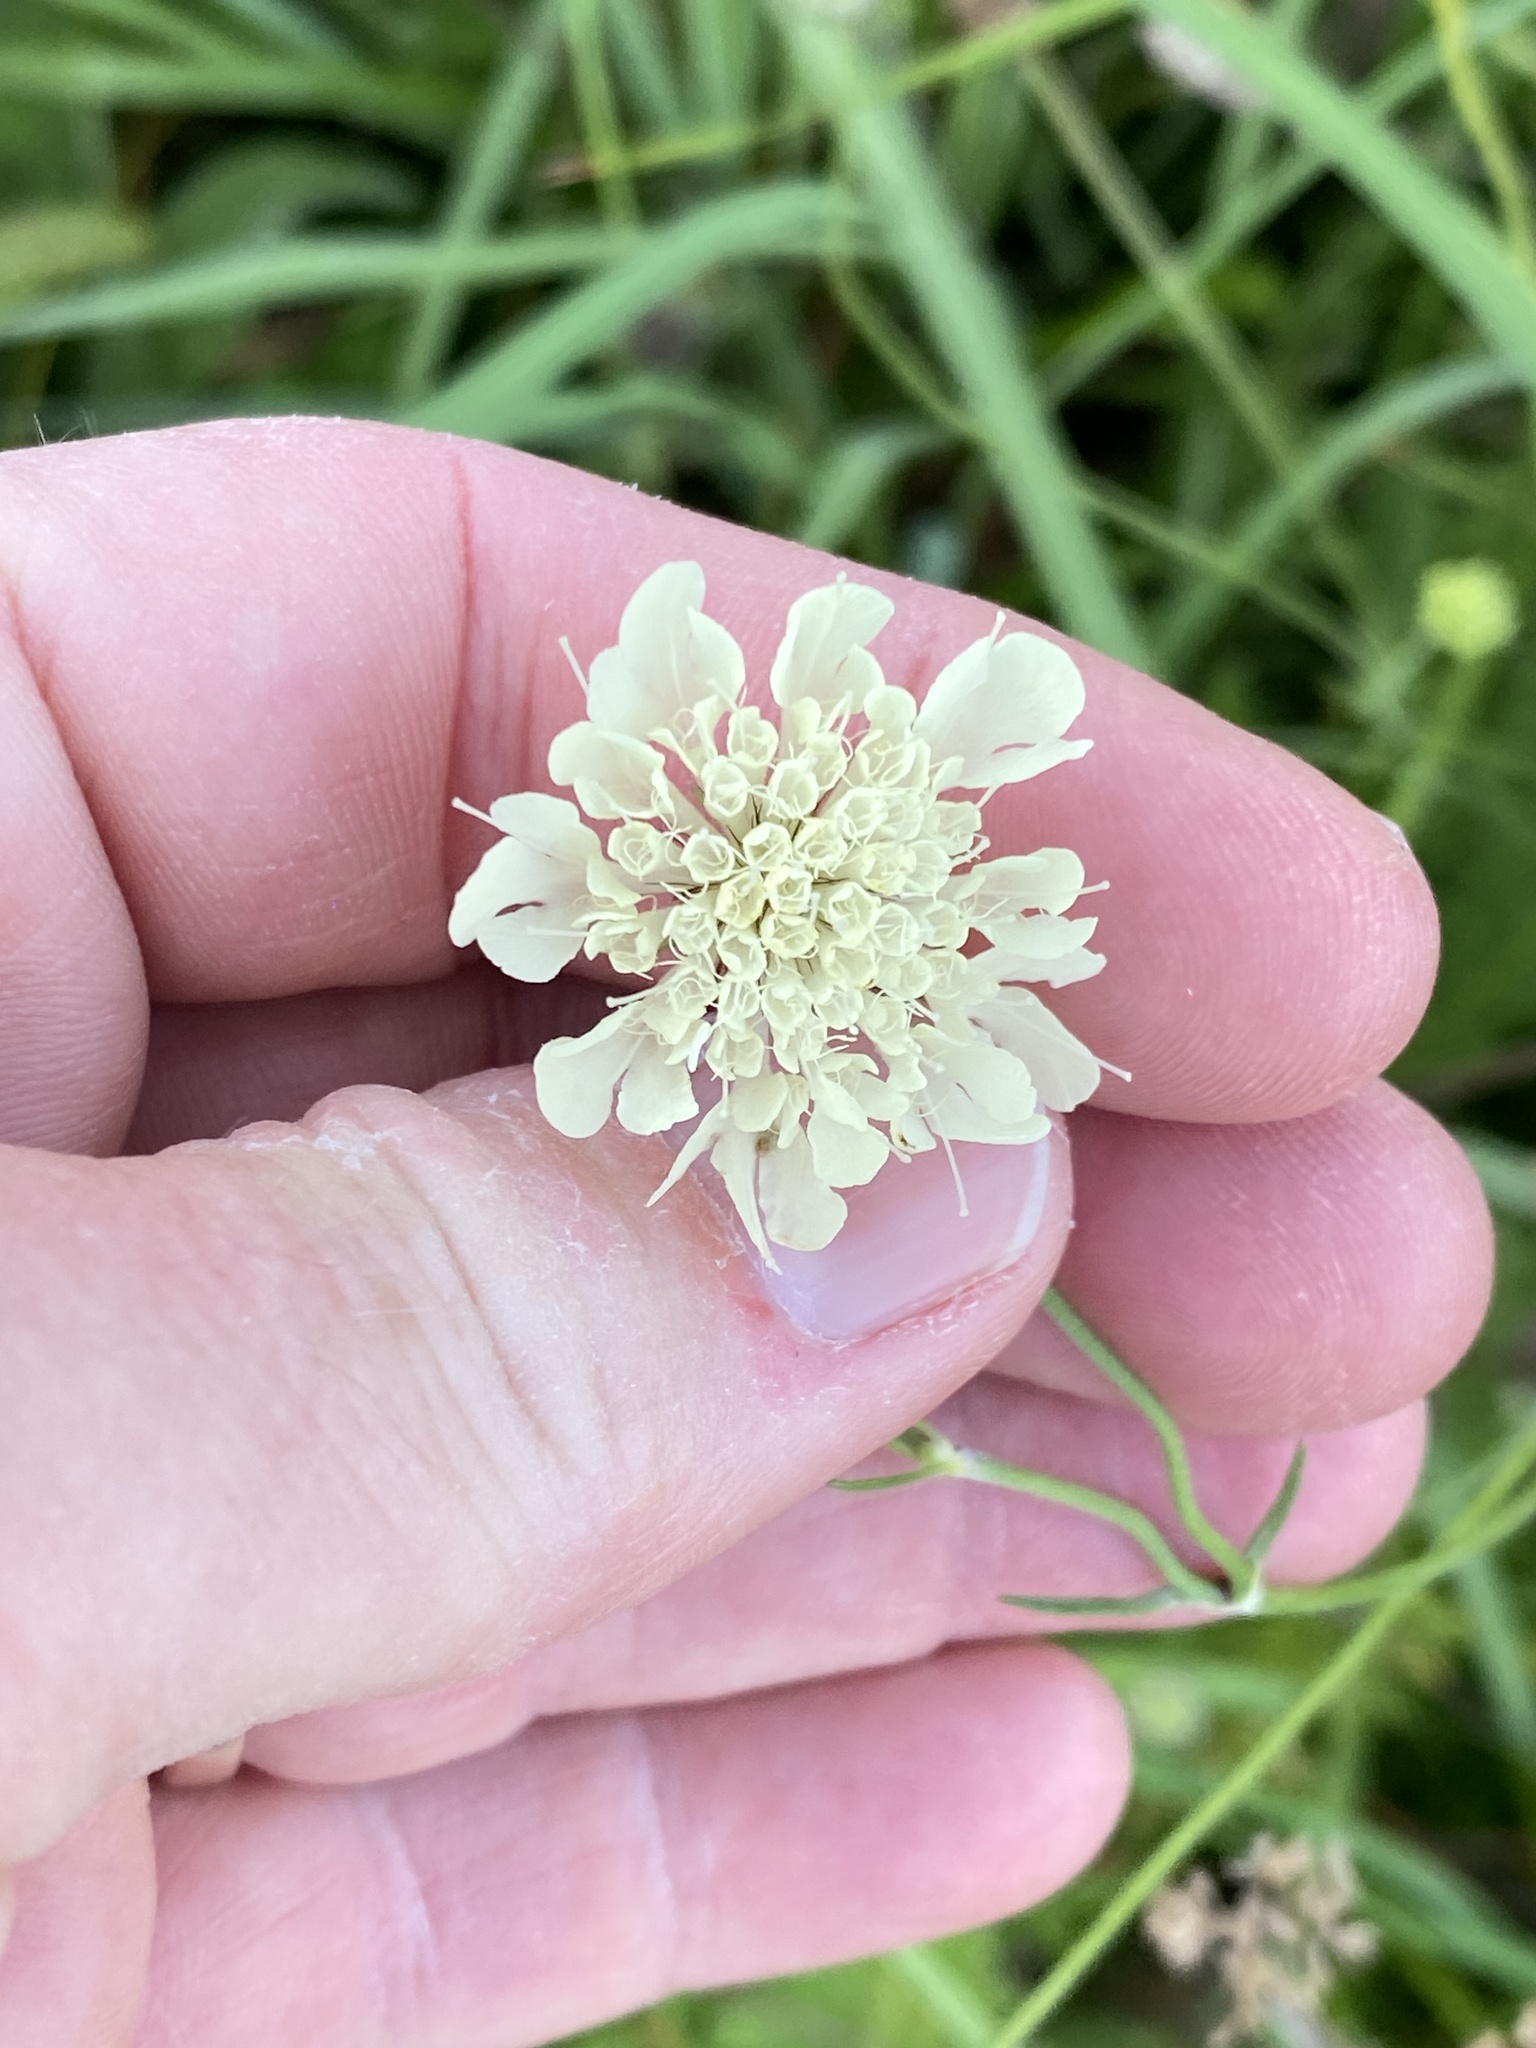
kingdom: Plantae
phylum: Tracheophyta
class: Magnoliopsida
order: Dipsacales
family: Caprifoliaceae
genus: Scabiosa
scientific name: Scabiosa ochroleuca
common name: Cream pincushions
